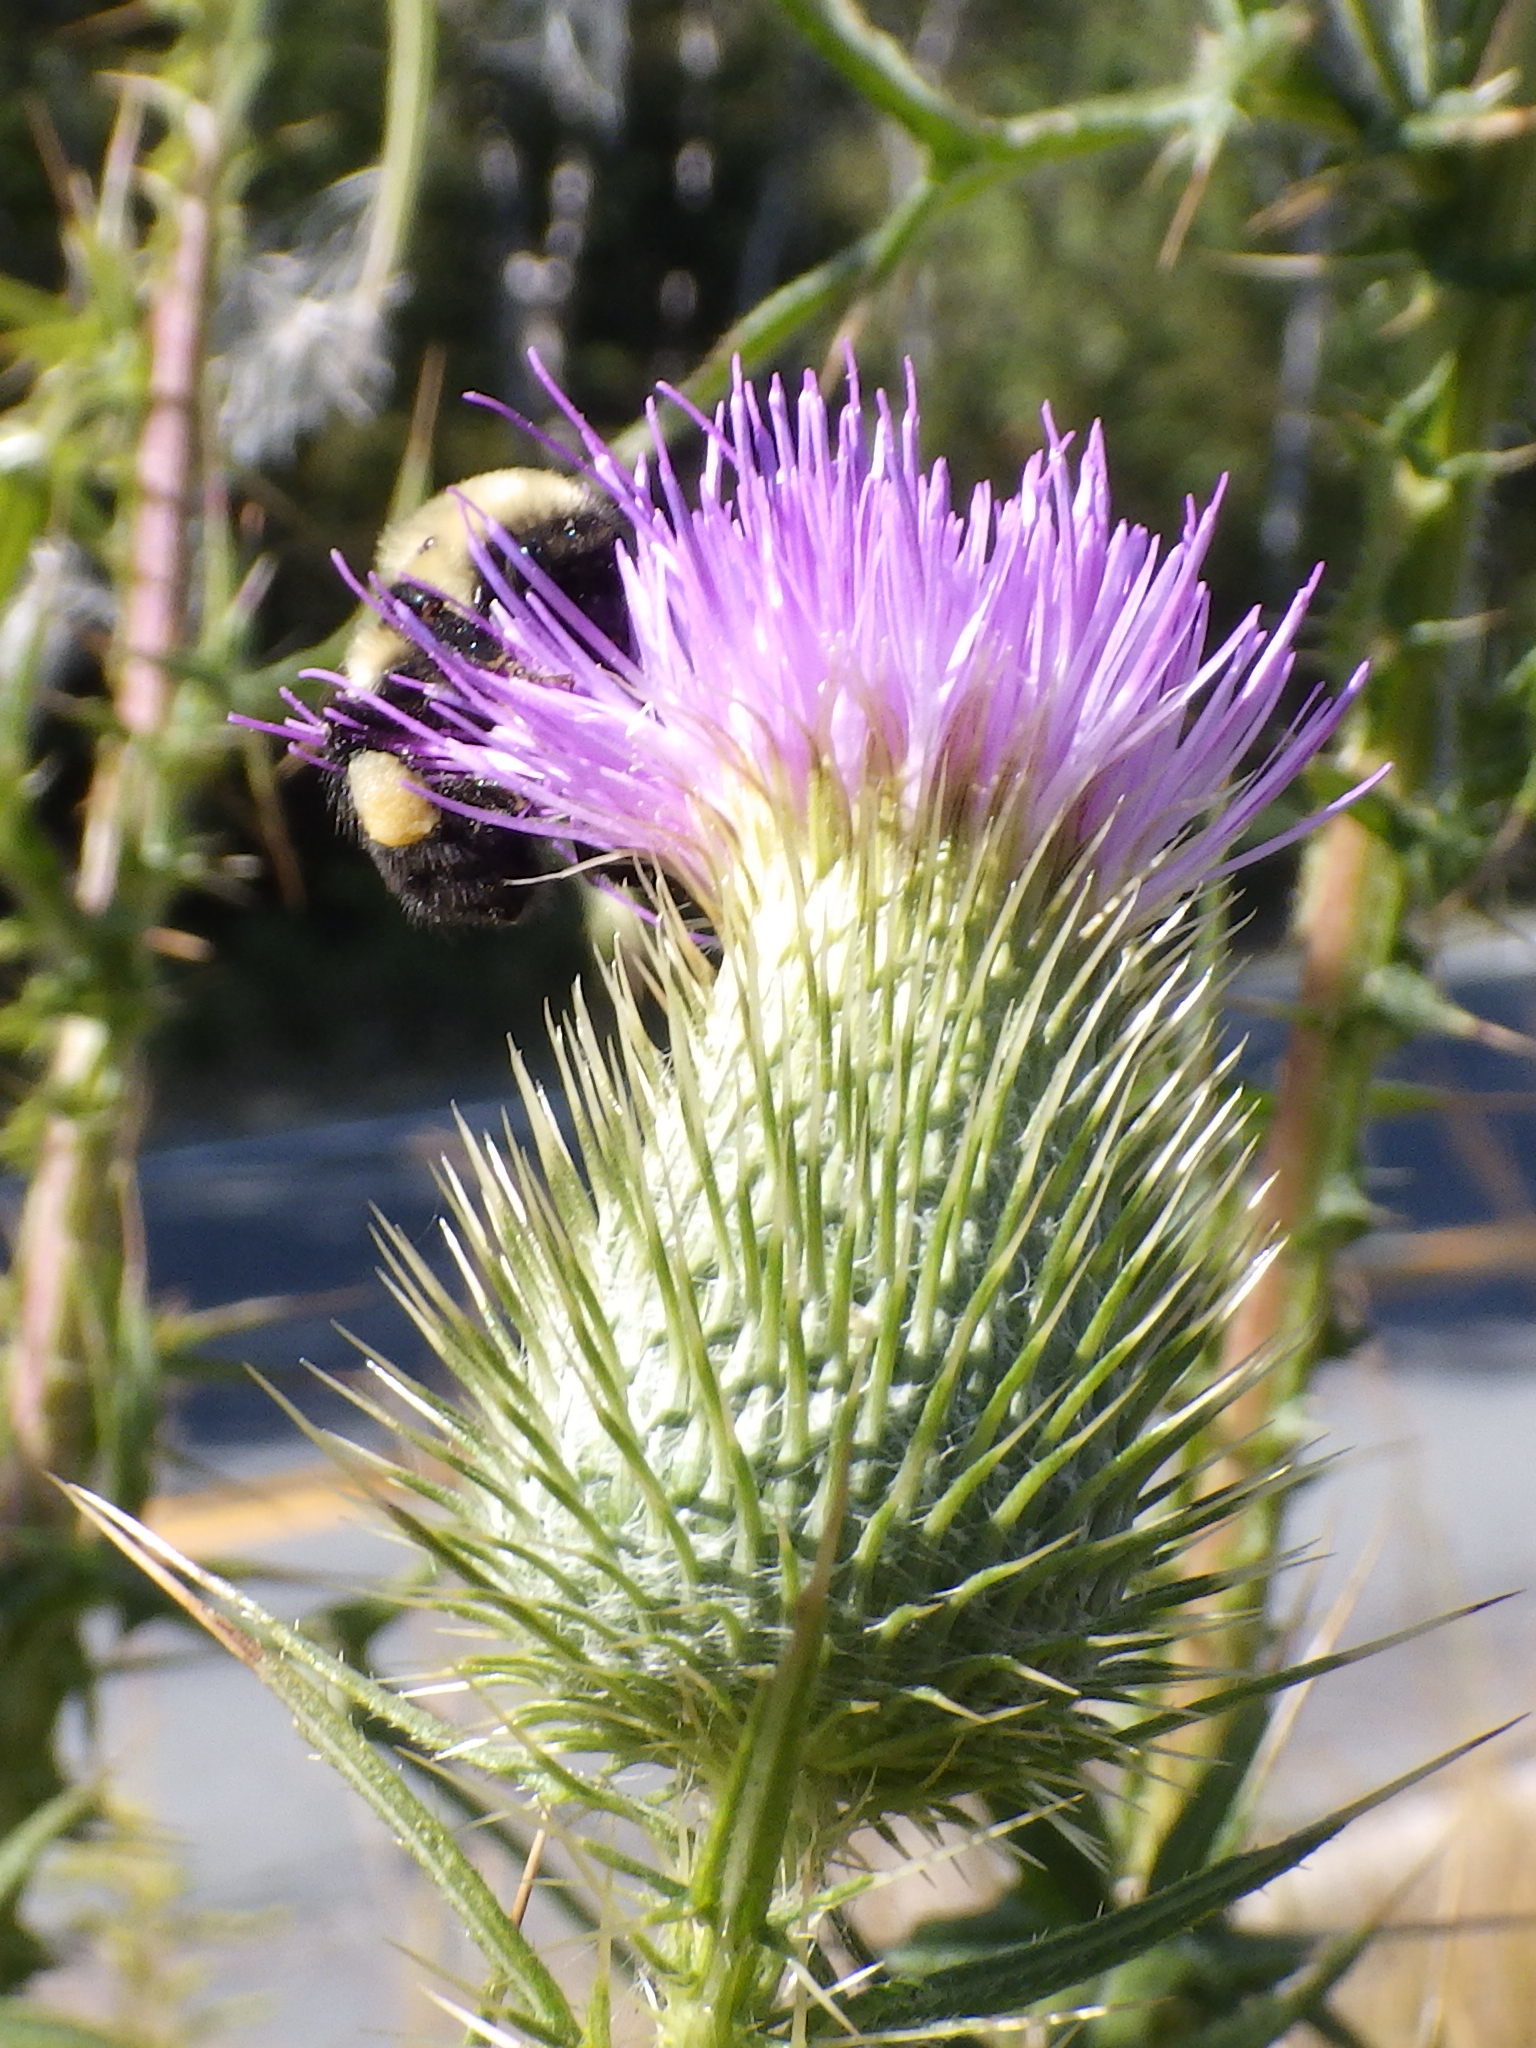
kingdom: Animalia
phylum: Arthropoda
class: Insecta
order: Hymenoptera
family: Apidae
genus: Bombus
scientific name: Bombus impatiens
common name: Common eastern bumble bee
